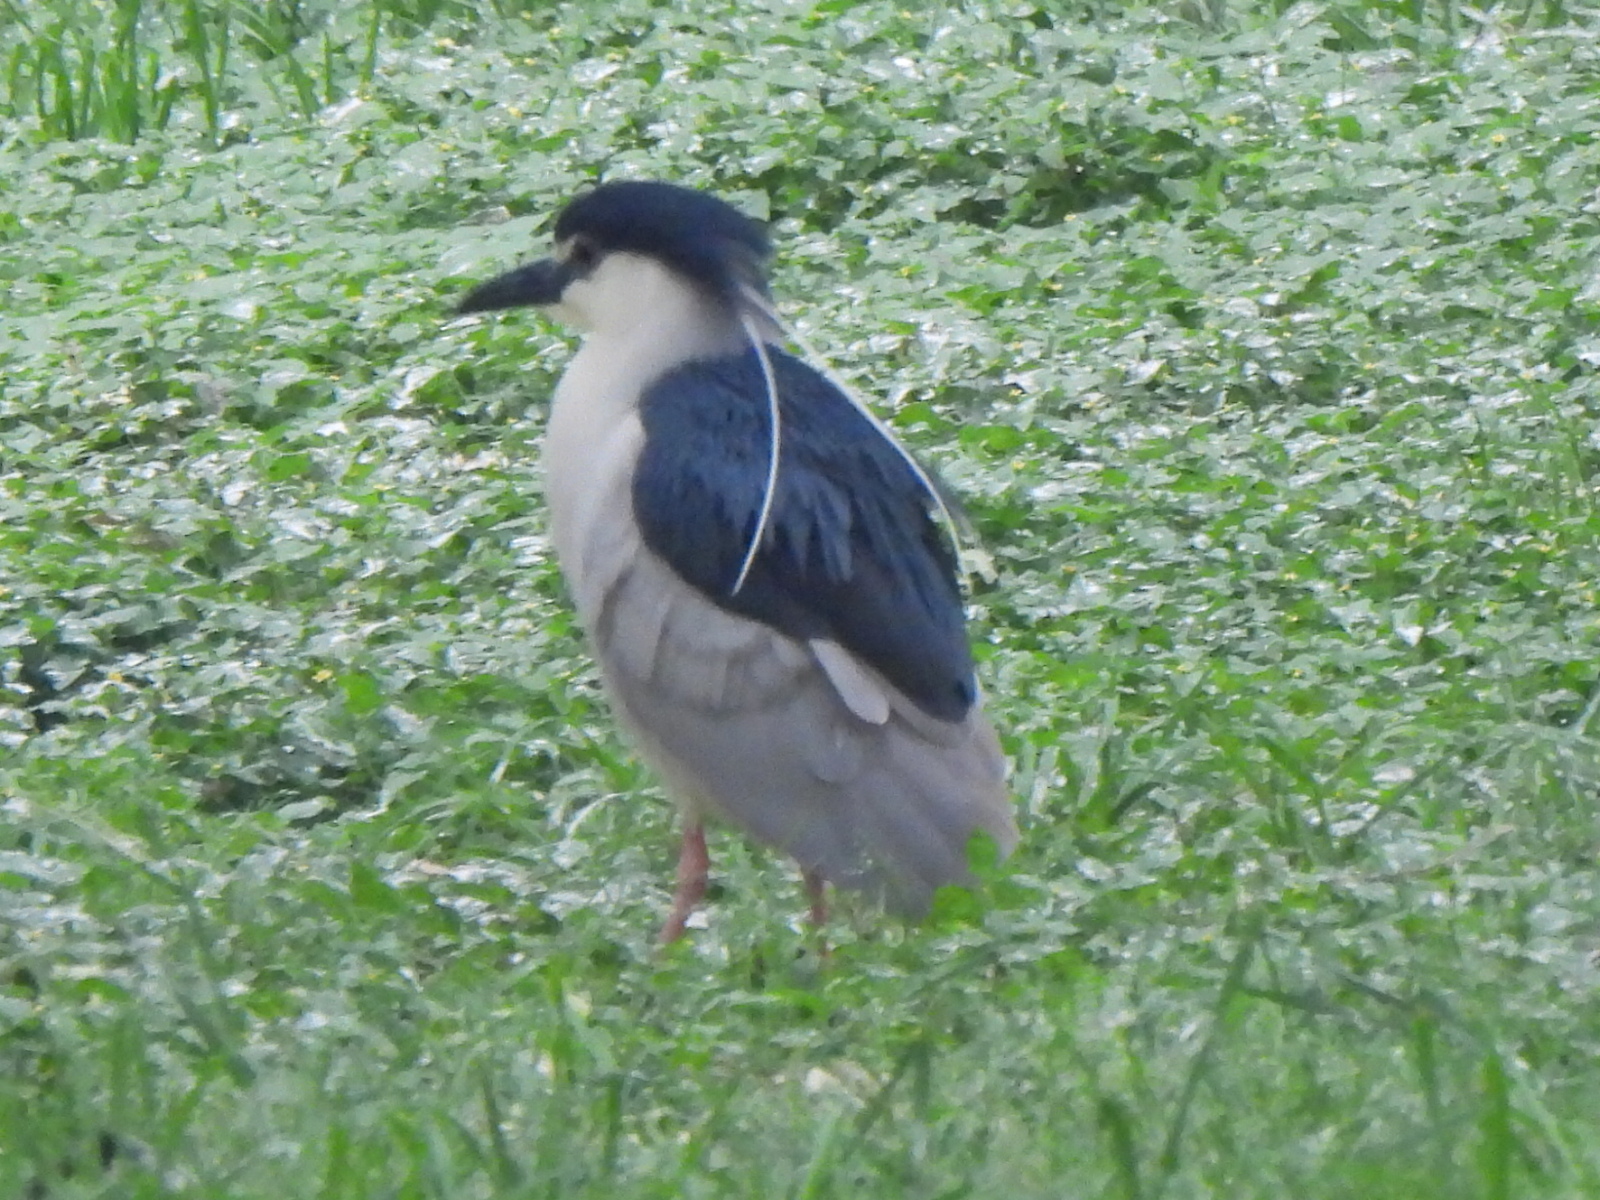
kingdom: Animalia
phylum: Chordata
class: Aves
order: Pelecaniformes
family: Ardeidae
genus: Nycticorax
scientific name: Nycticorax nycticorax
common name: Black-crowned night heron
